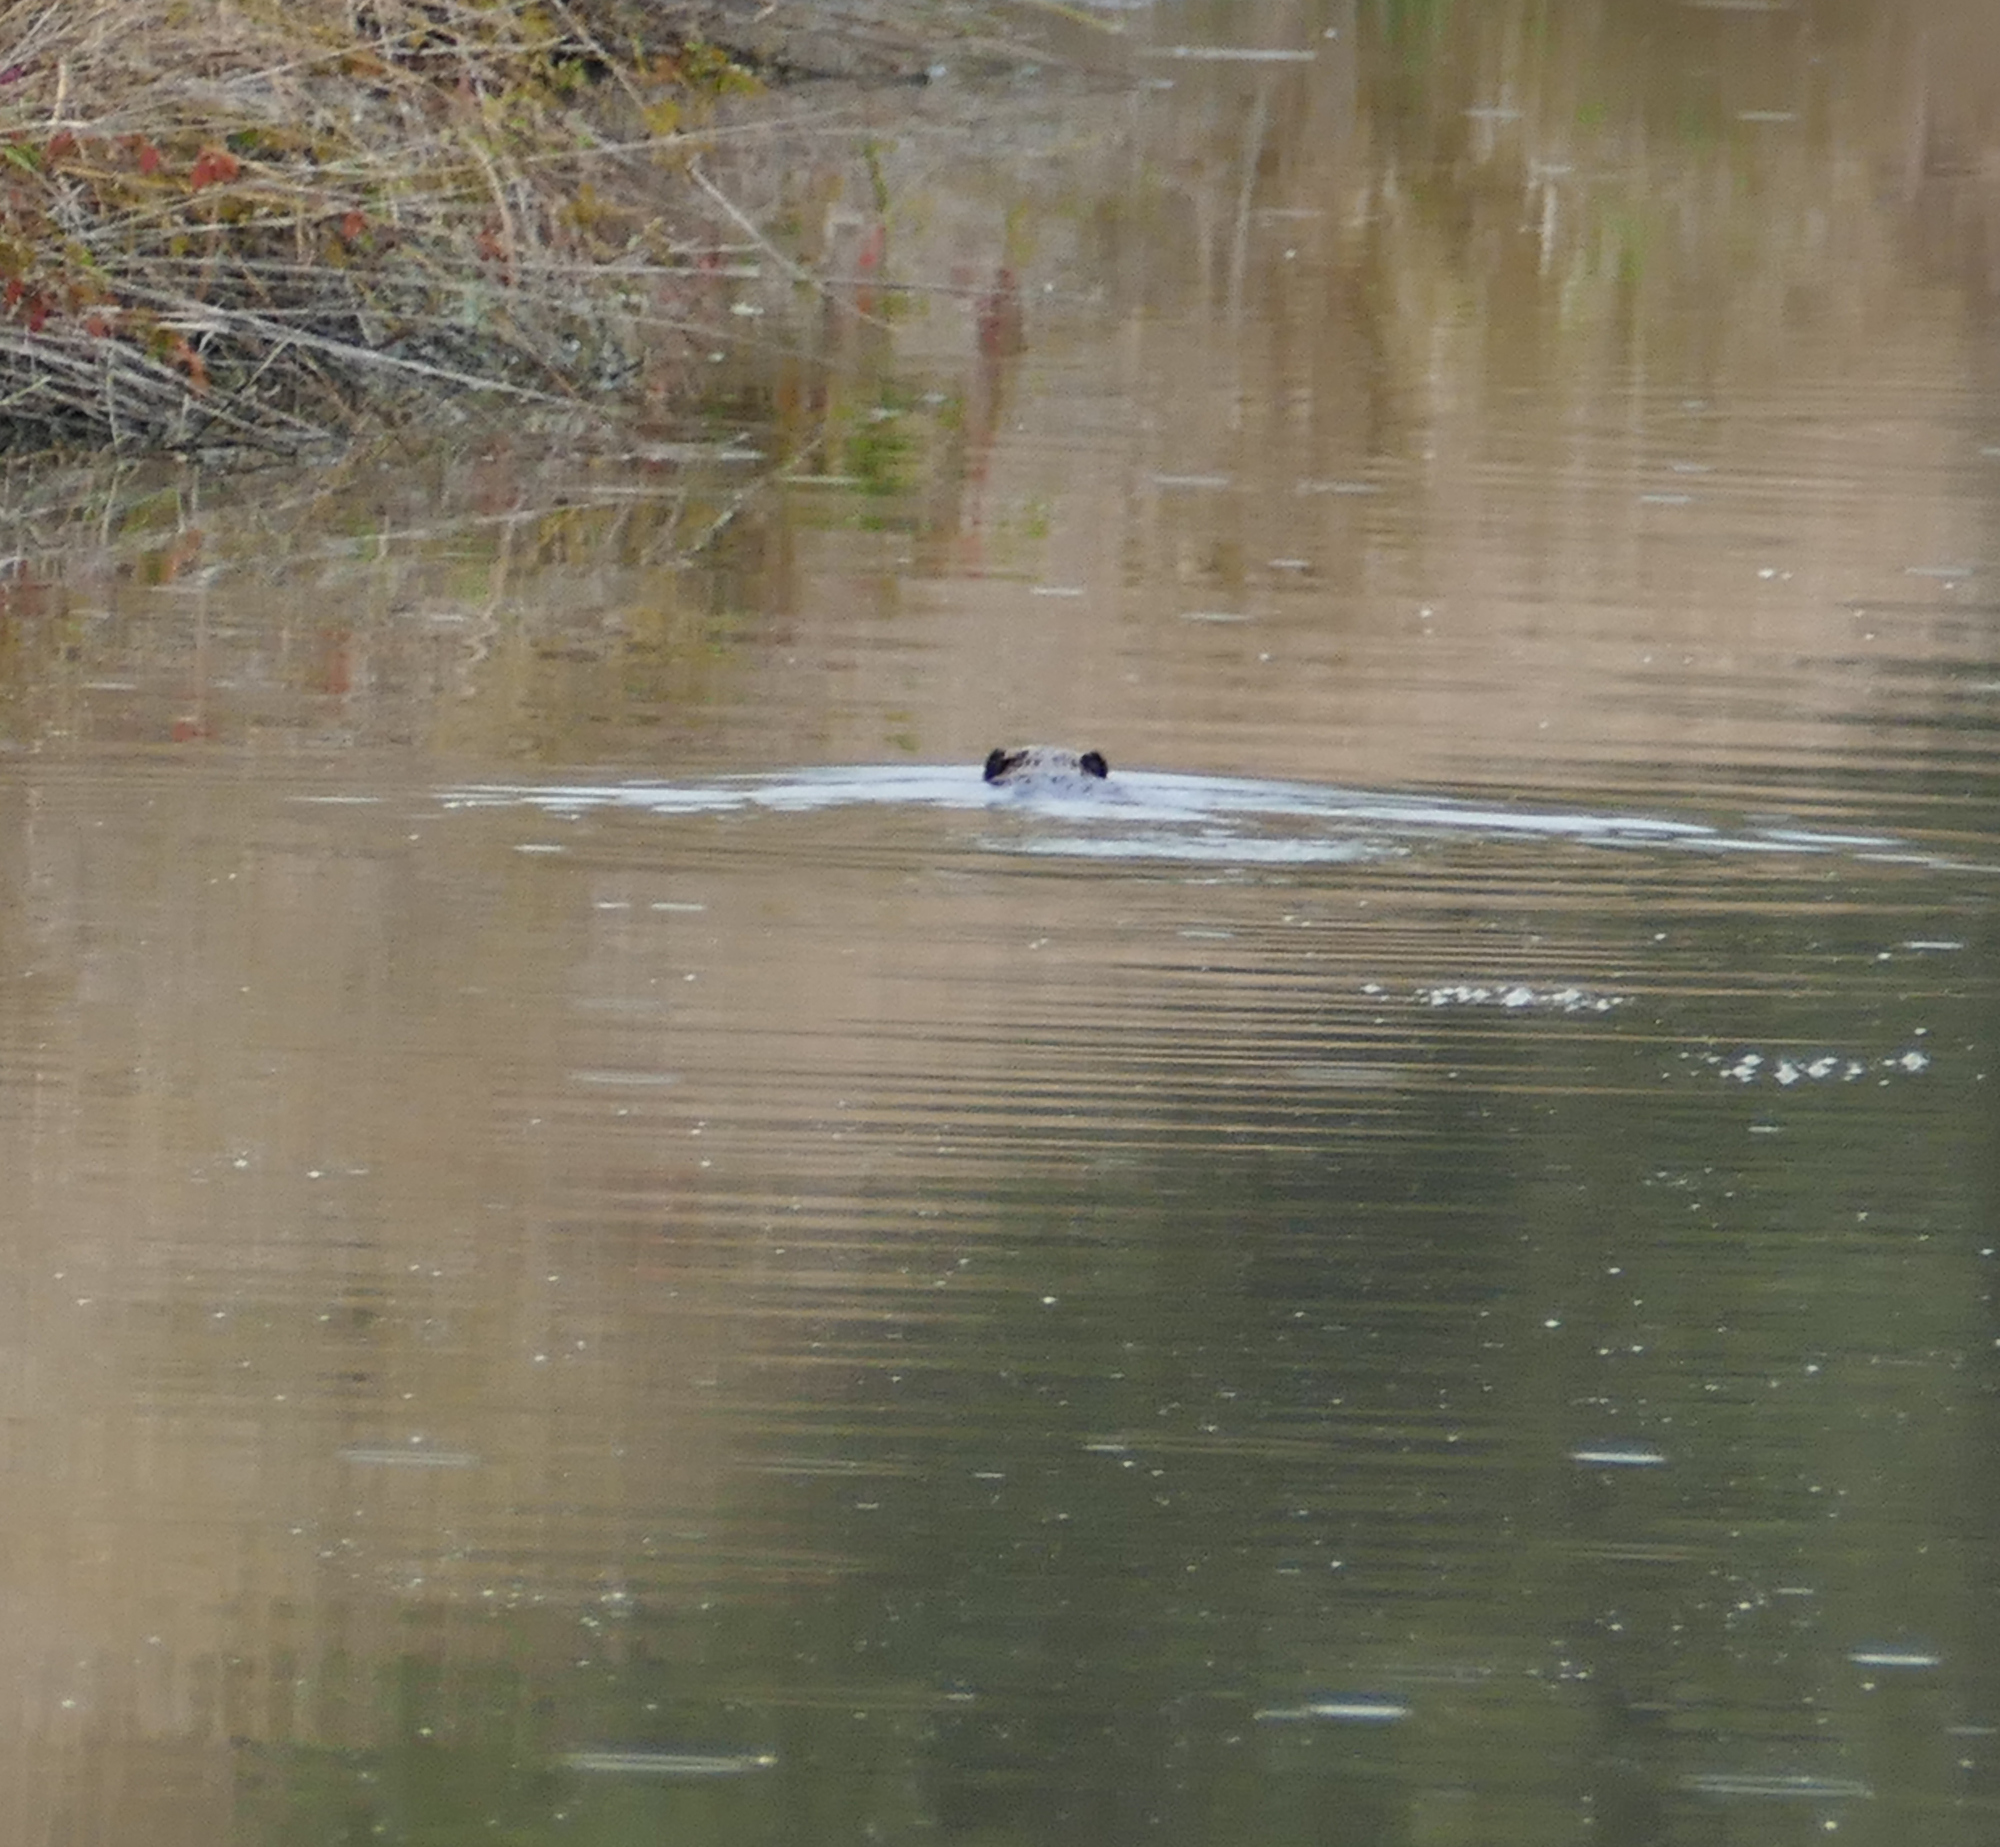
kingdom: Animalia
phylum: Chordata
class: Mammalia
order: Rodentia
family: Castoridae
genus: Castor
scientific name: Castor canadensis
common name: American beaver
